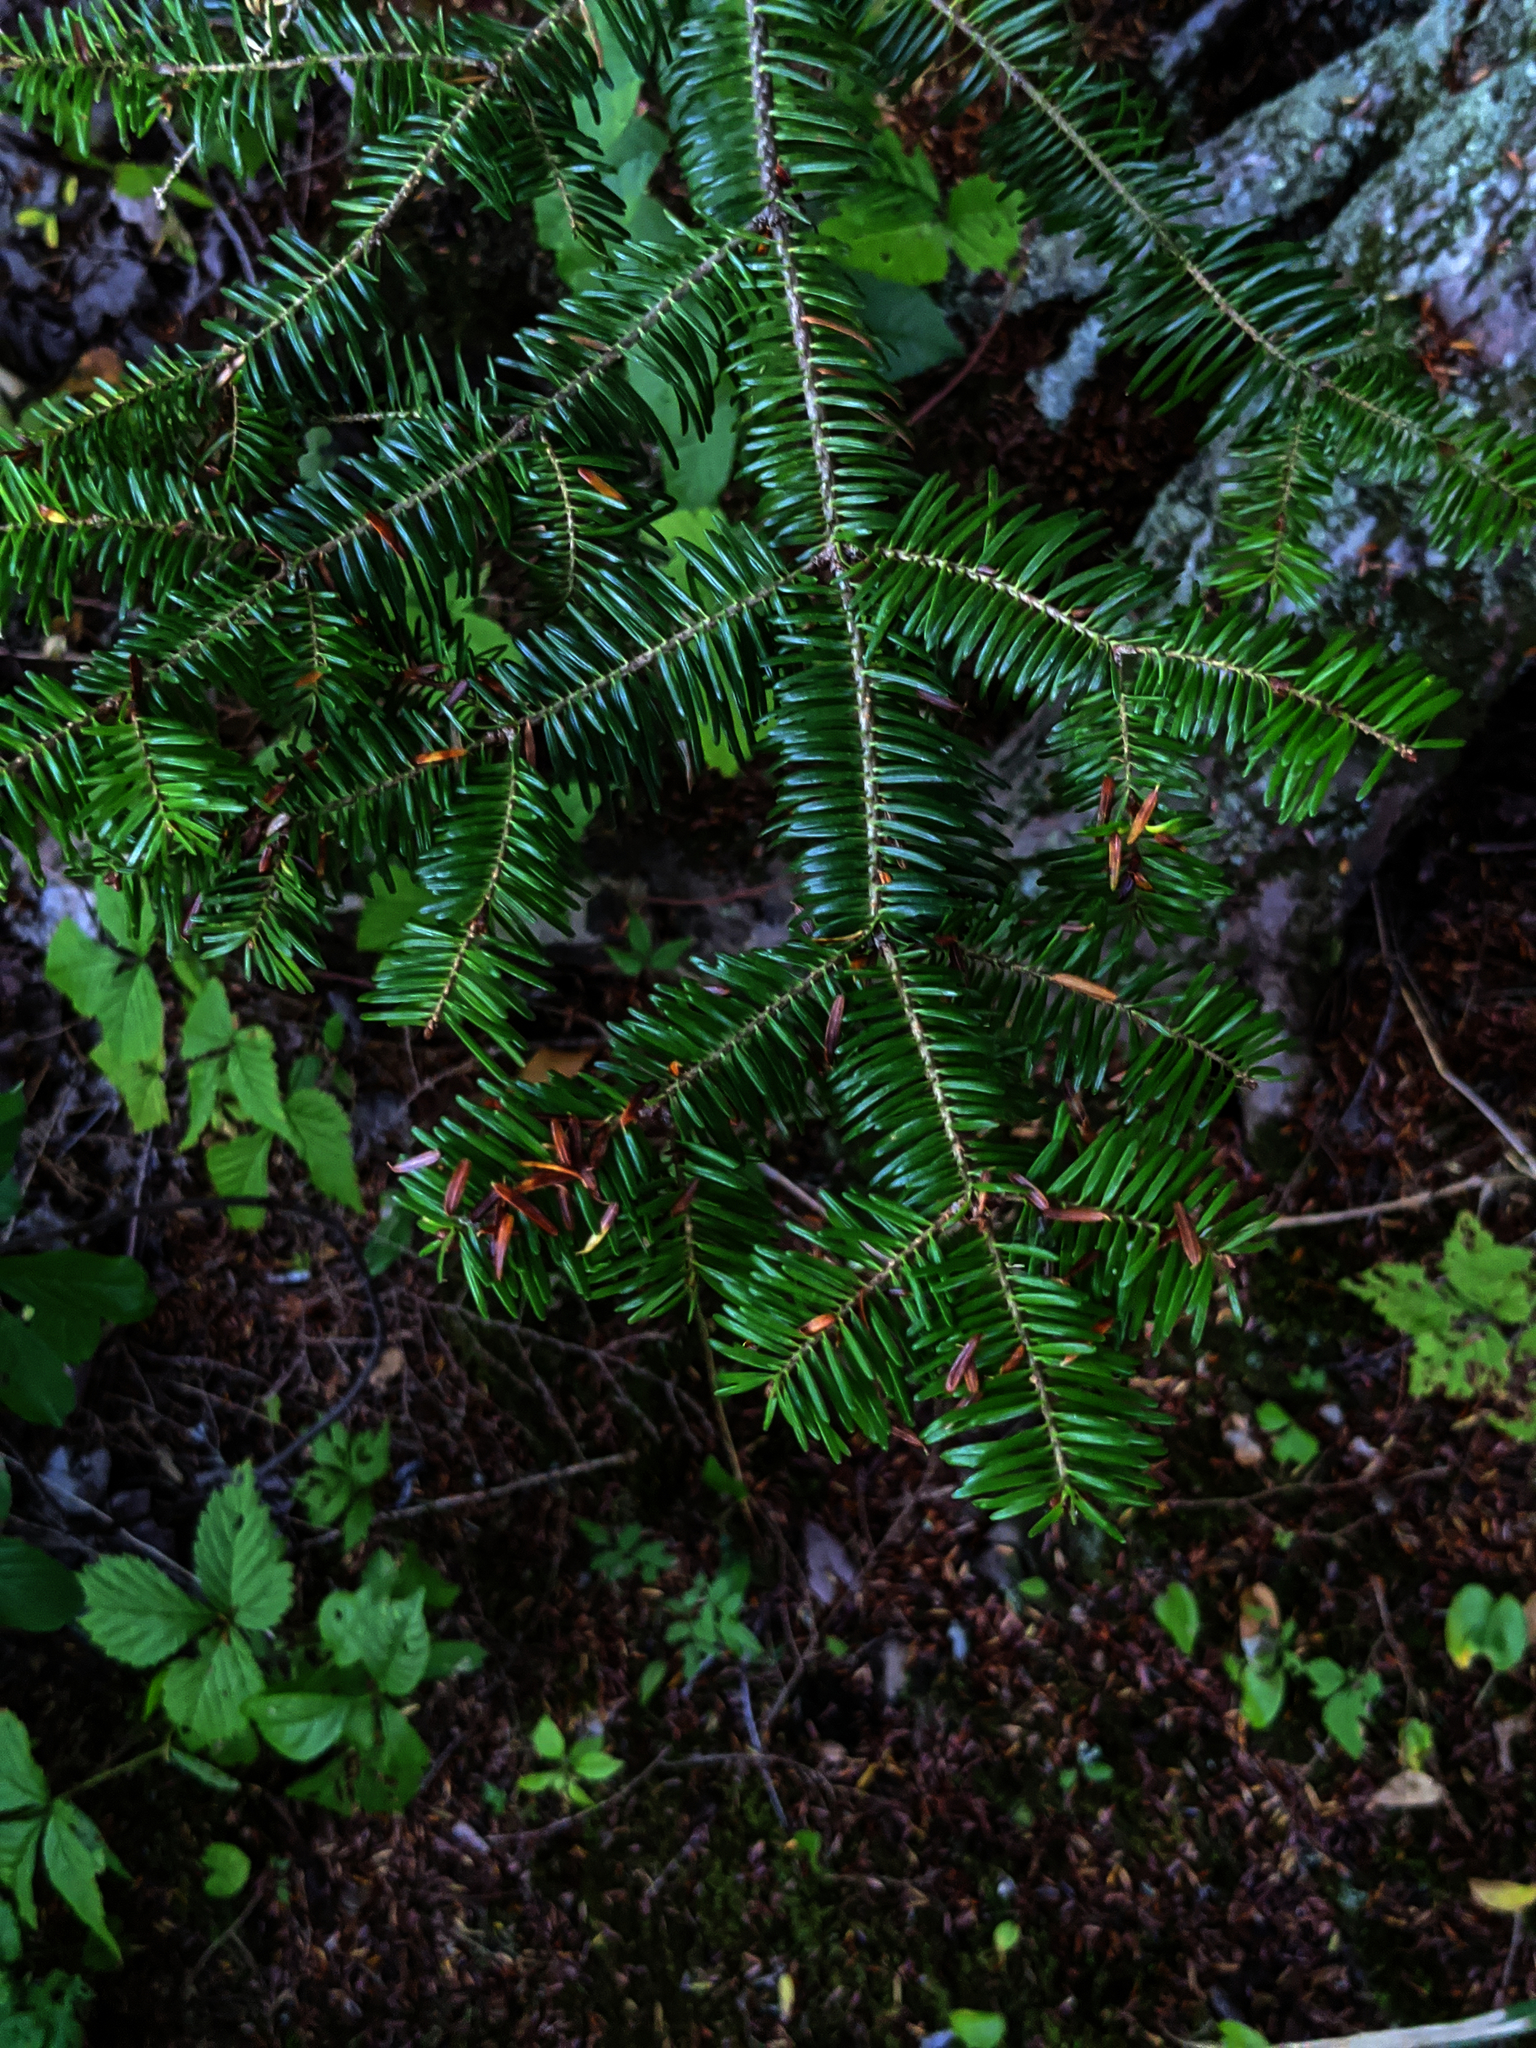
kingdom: Plantae
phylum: Tracheophyta
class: Pinopsida
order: Pinales
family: Pinaceae
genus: Abies
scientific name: Abies balsamea
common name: Balsam fir
